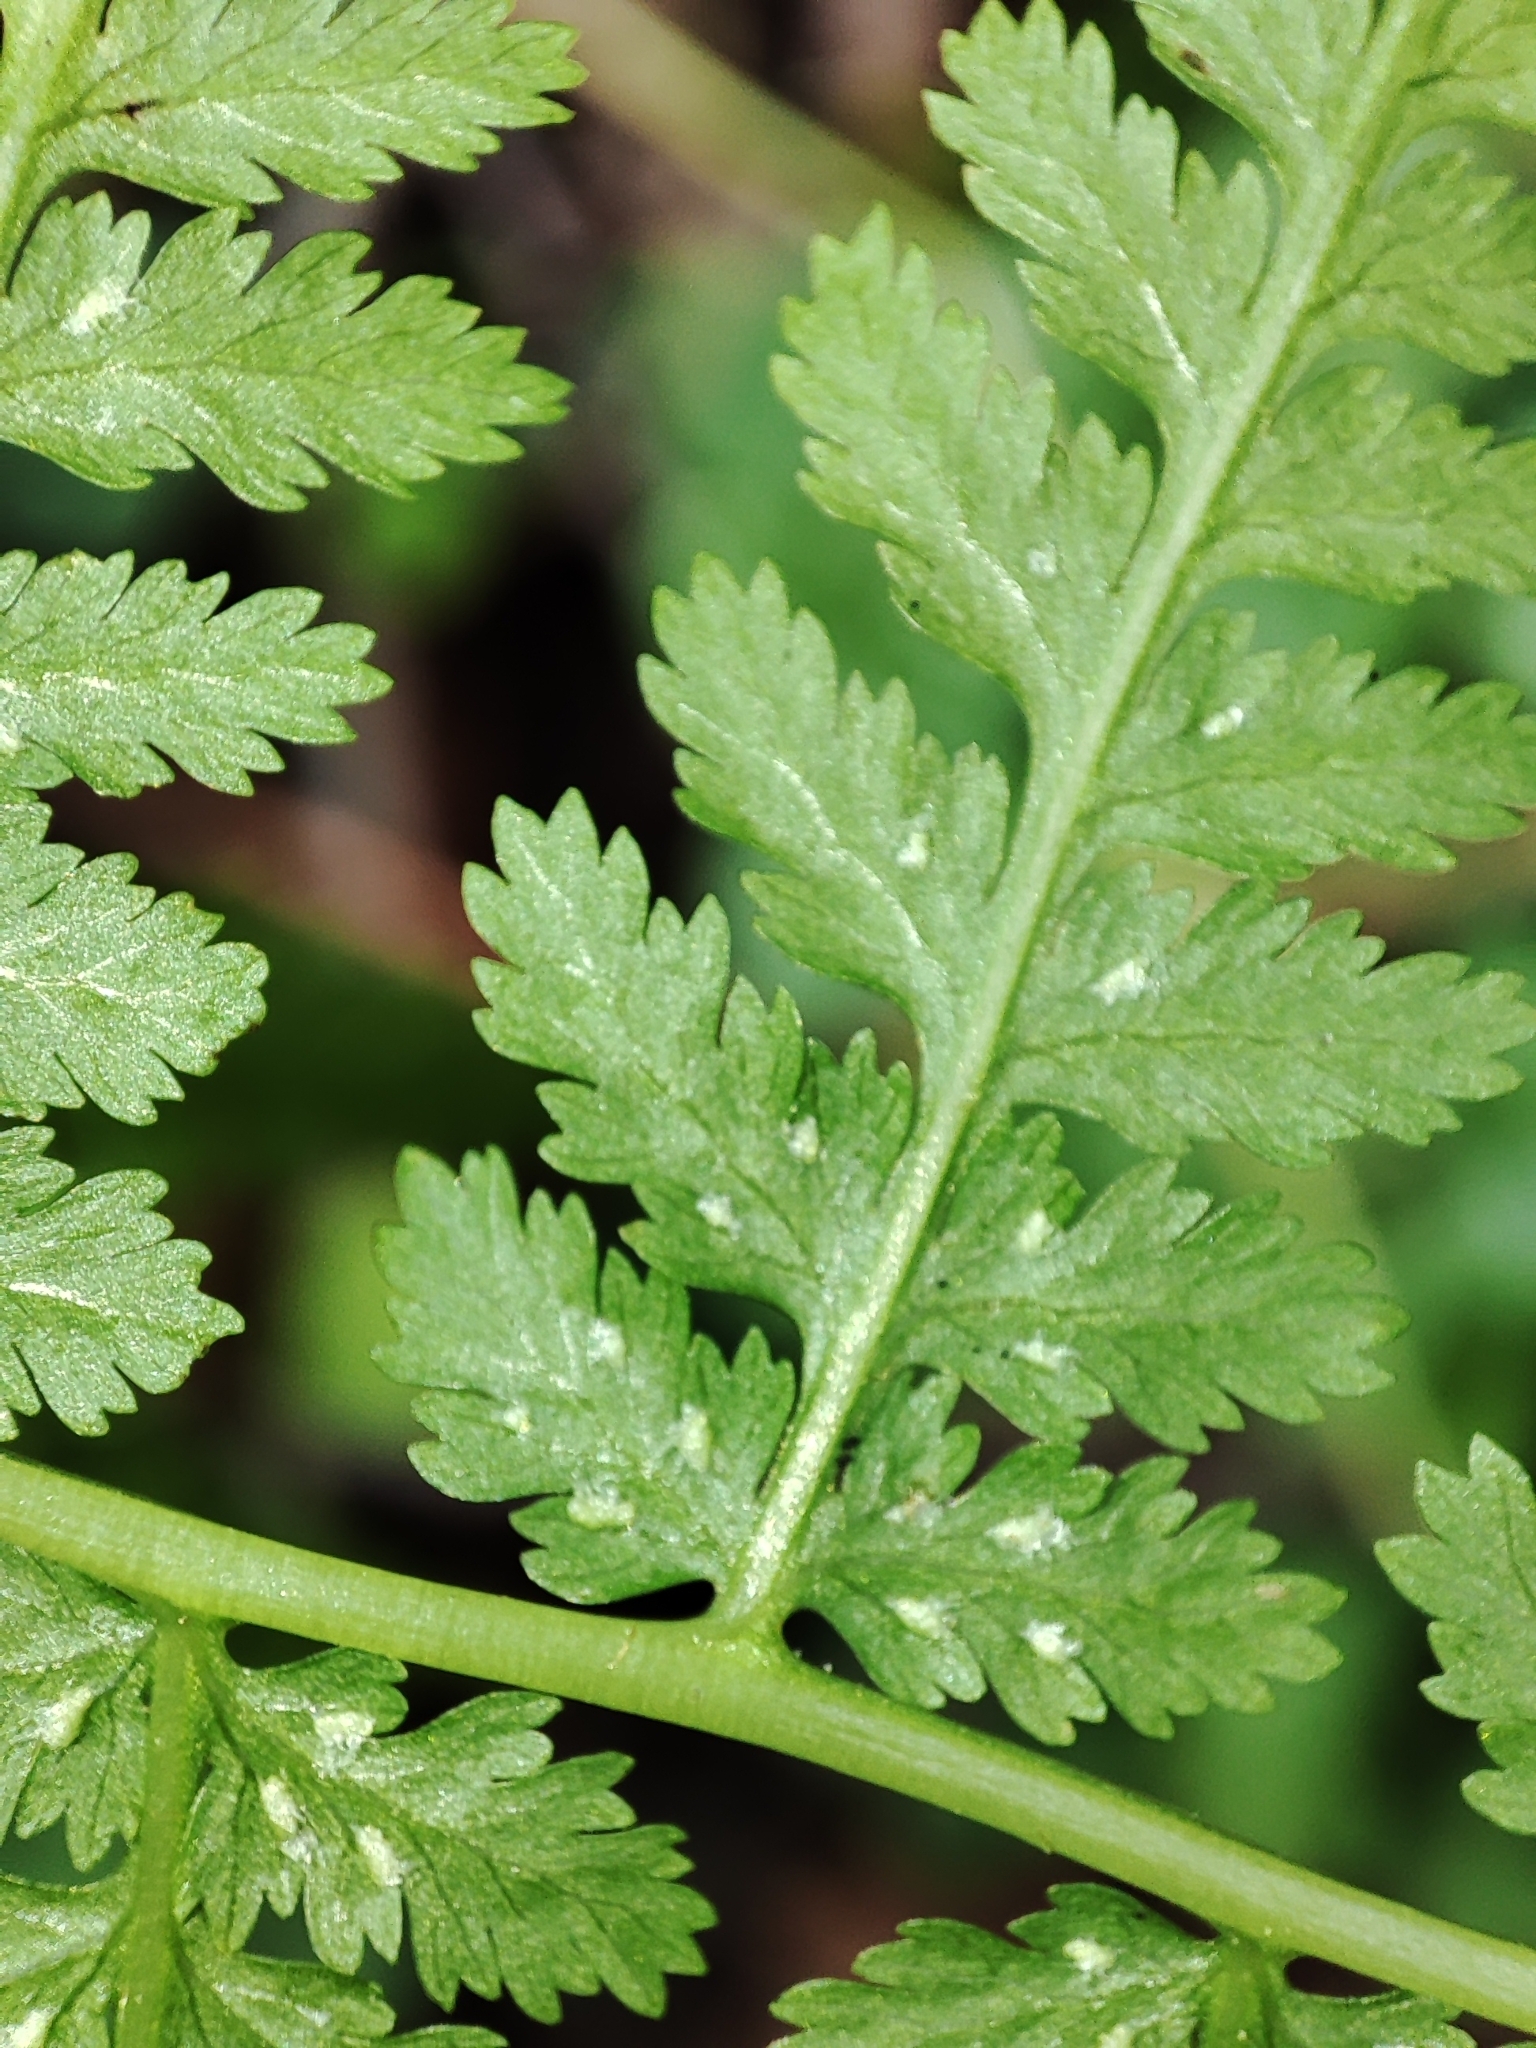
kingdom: Plantae
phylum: Tracheophyta
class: Polypodiopsida
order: Polypodiales
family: Athyriaceae
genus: Athyrium
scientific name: Athyrium filix-femina
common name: Lady fern
